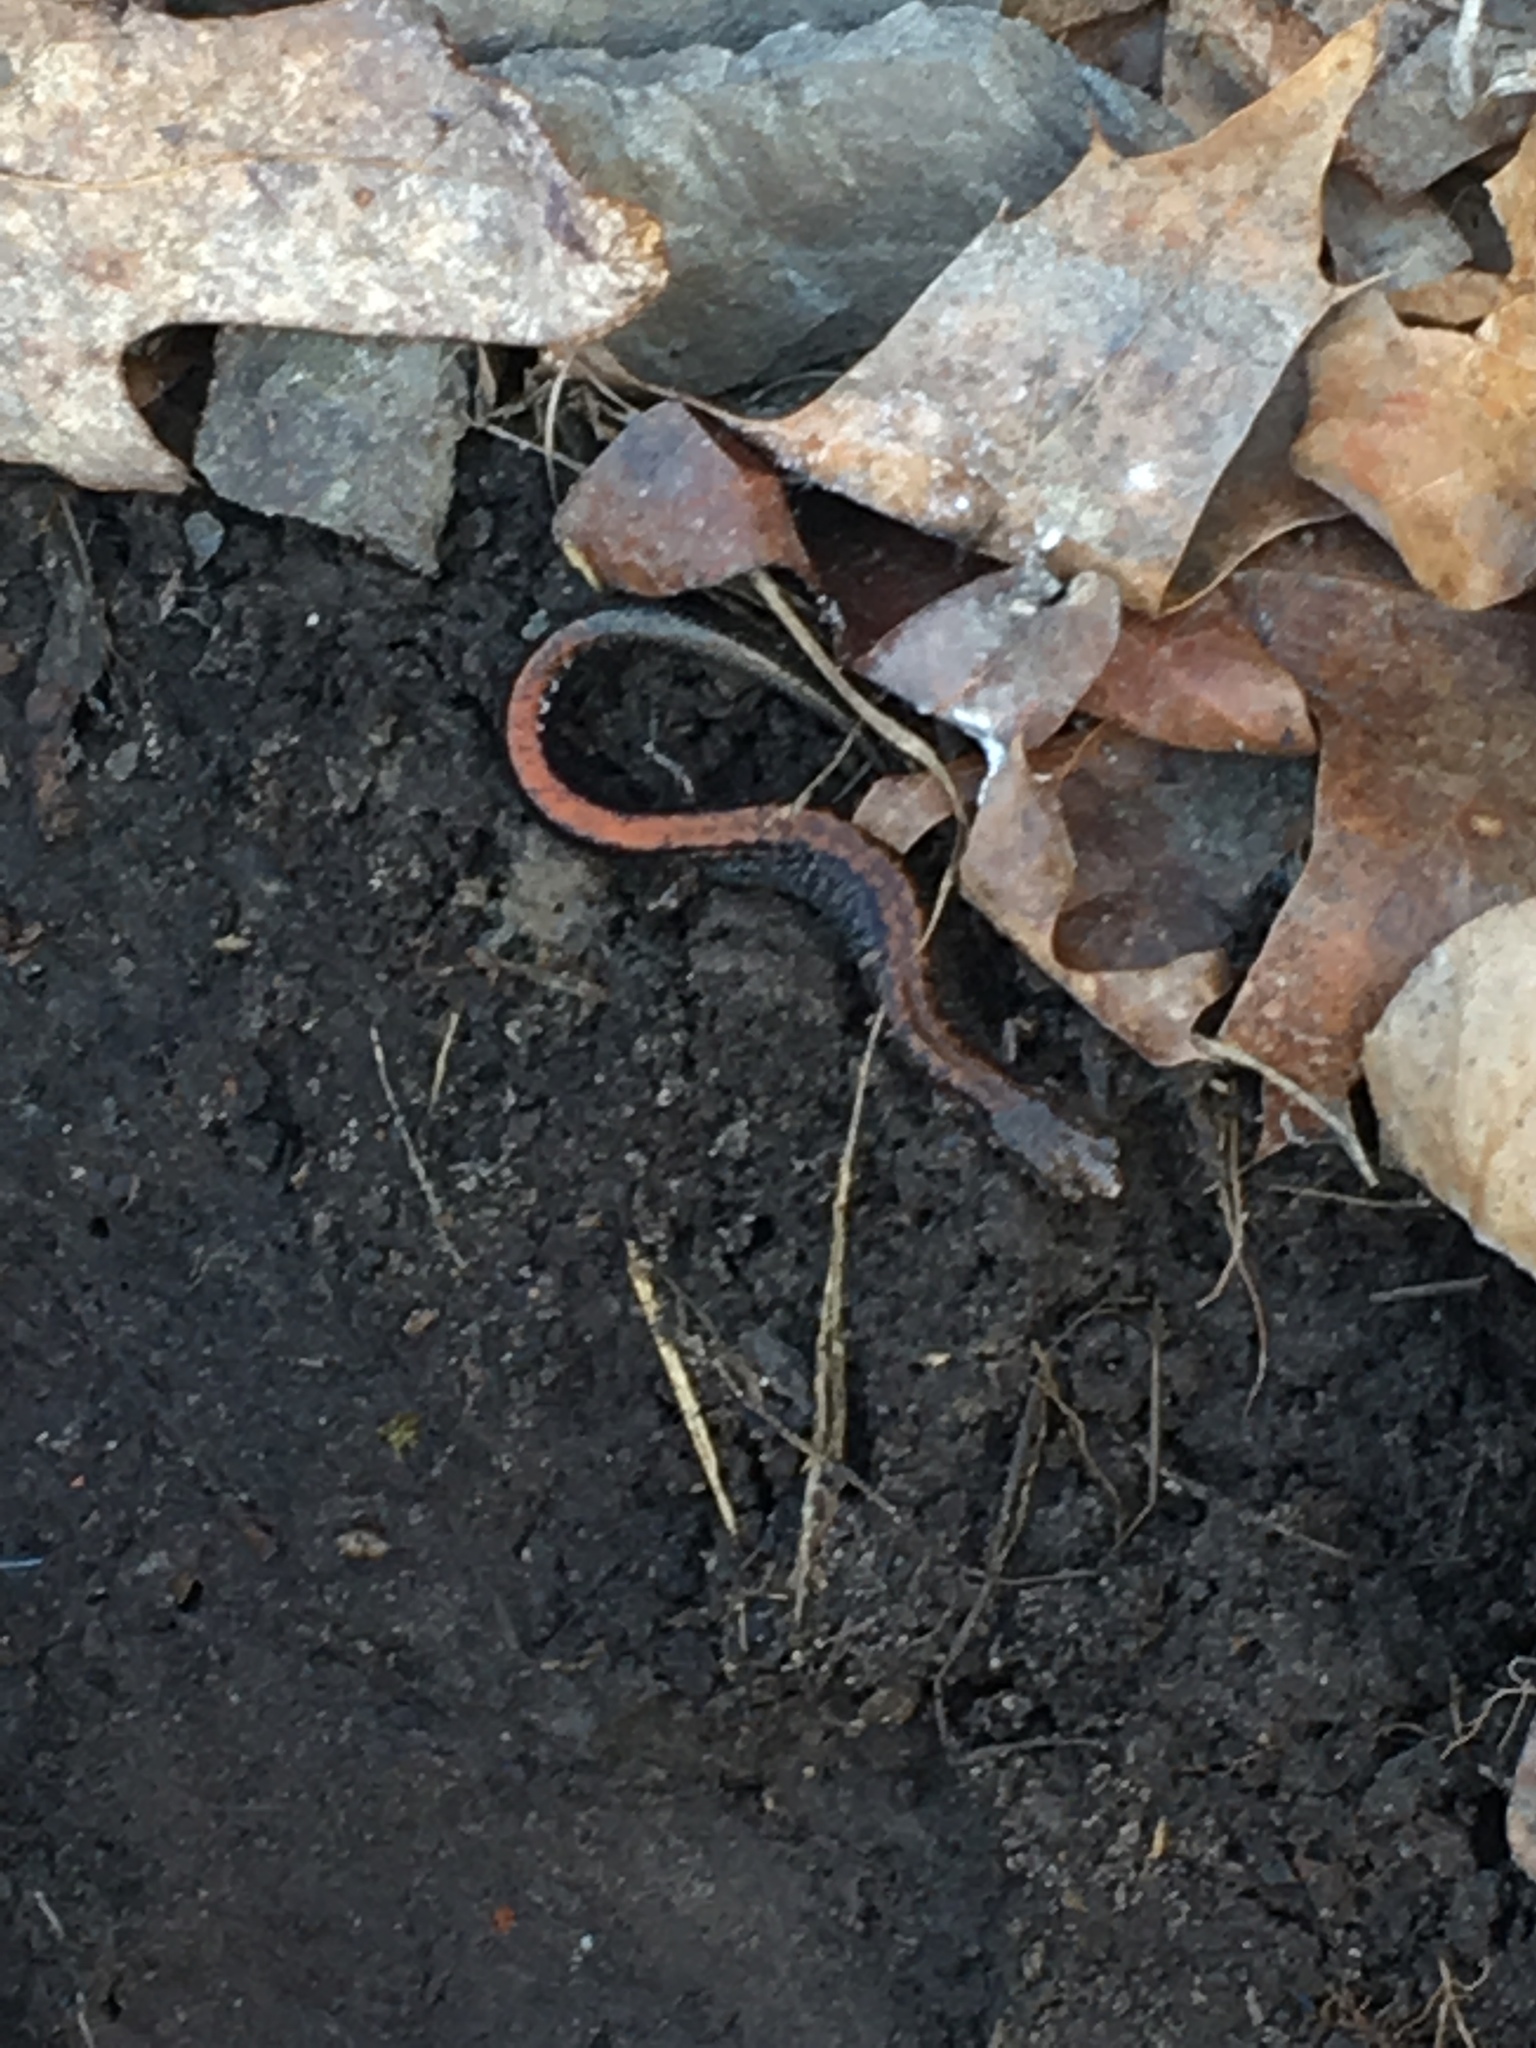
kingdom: Animalia
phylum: Chordata
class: Amphibia
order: Caudata
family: Plethodontidae
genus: Plethodon
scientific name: Plethodon cinereus
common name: Redback salamander
